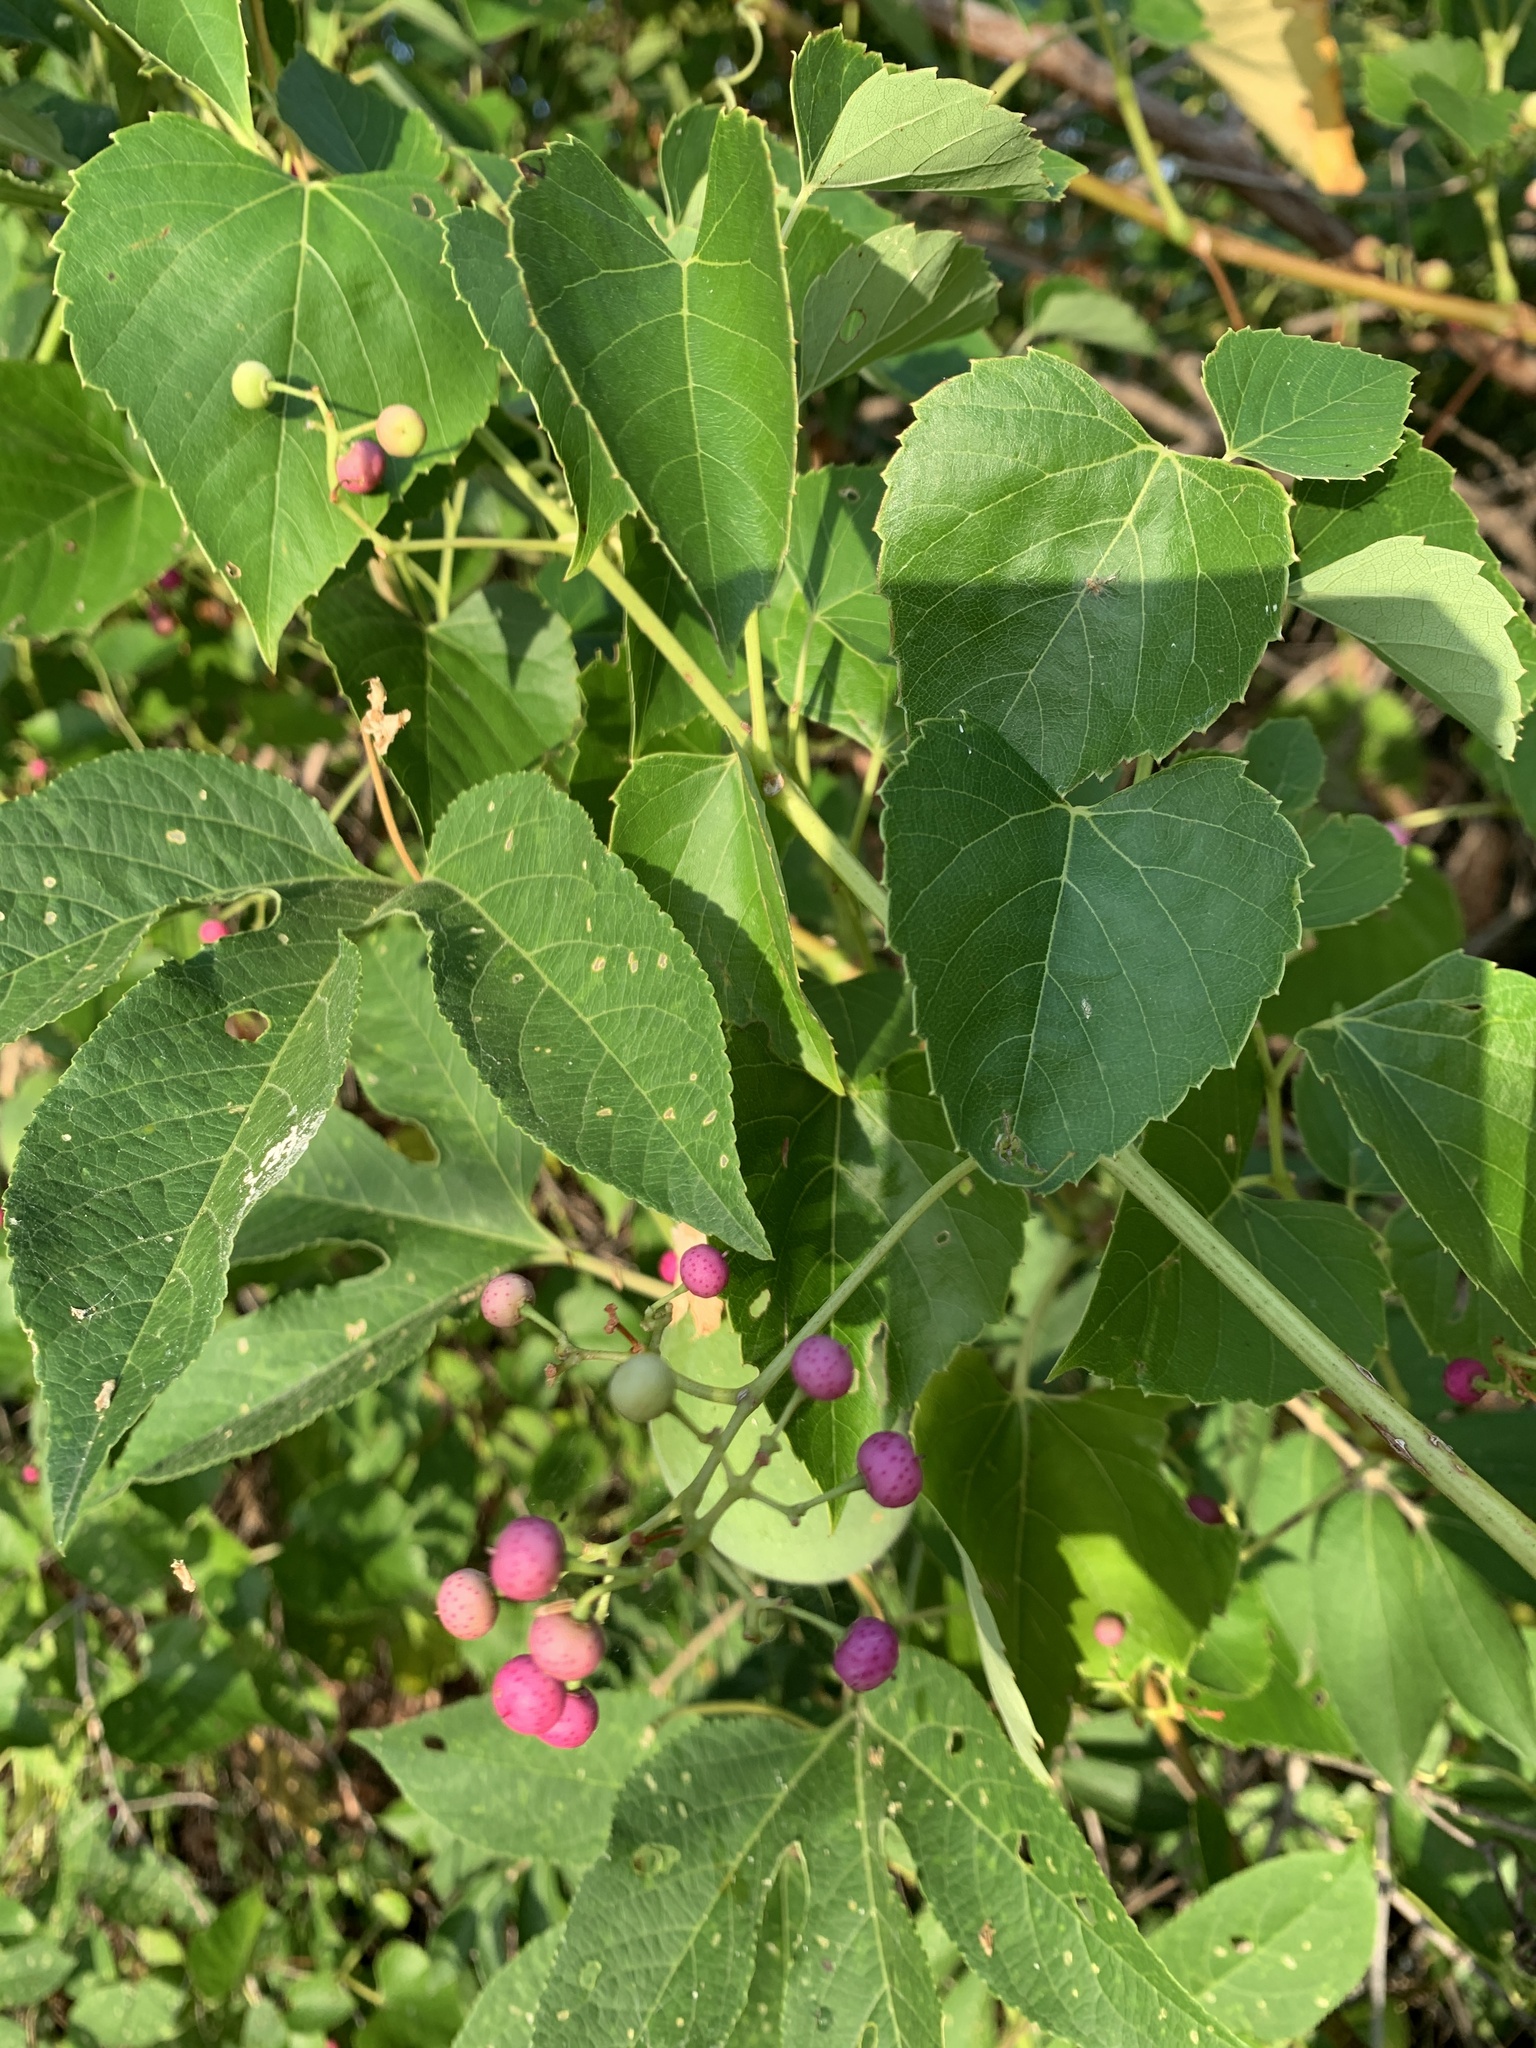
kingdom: Plantae
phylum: Tracheophyta
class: Magnoliopsida
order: Vitales
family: Vitaceae
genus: Ampelopsis
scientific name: Ampelopsis cordata
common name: Heart-leaf ampelopsis
